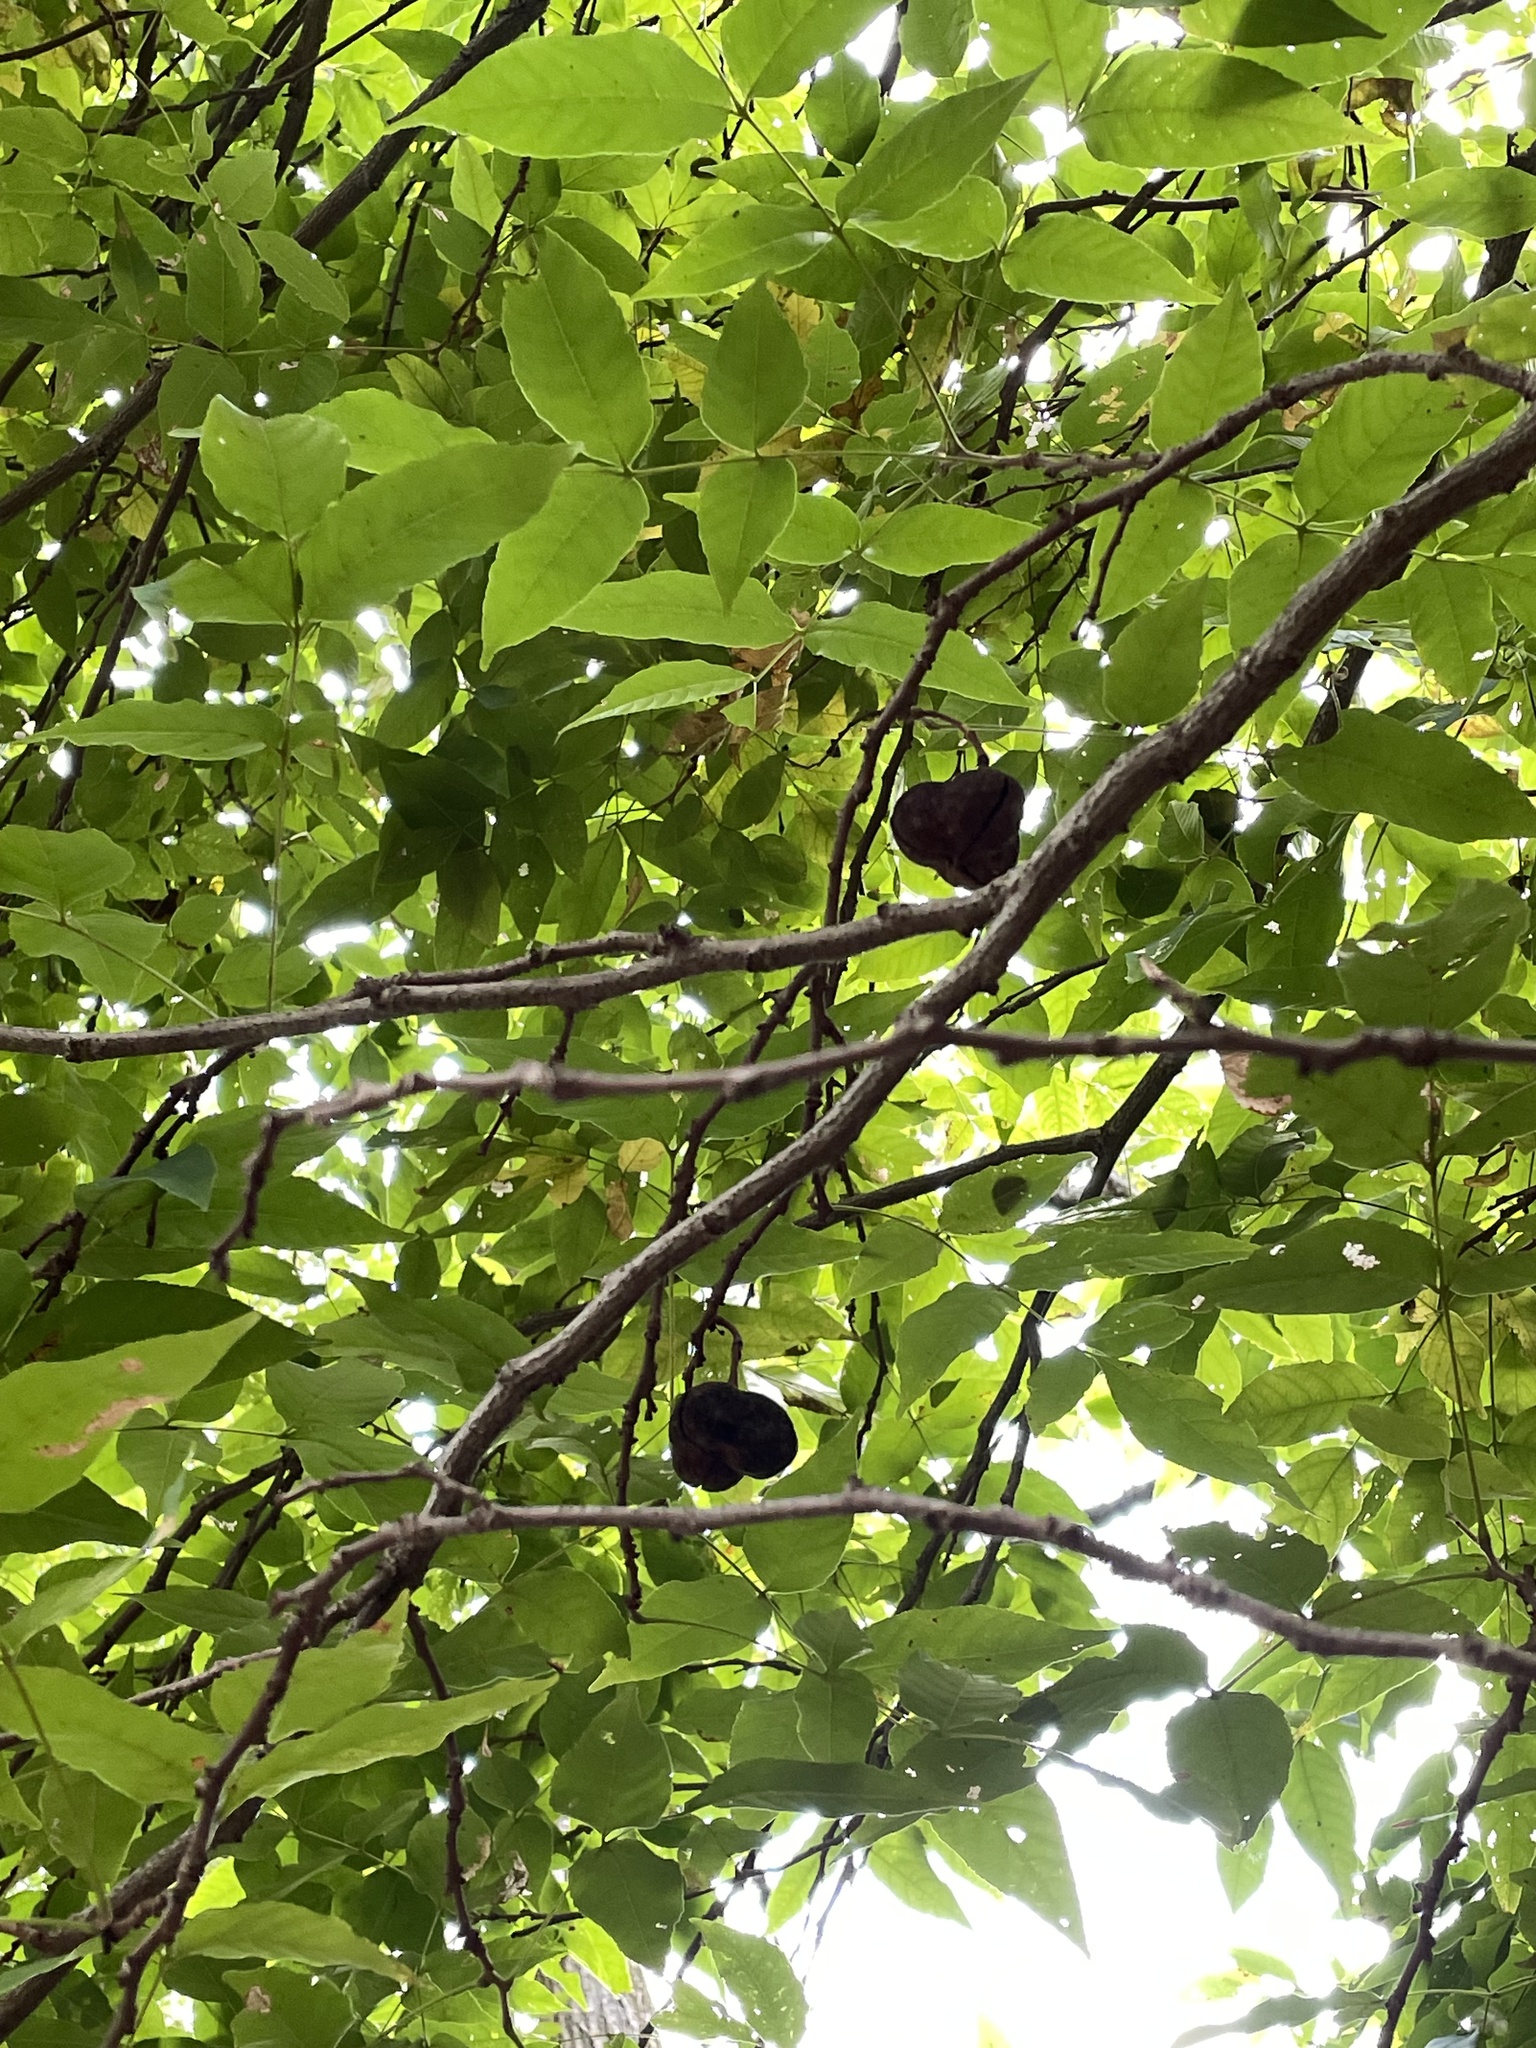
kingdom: Plantae
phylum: Tracheophyta
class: Magnoliopsida
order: Sapindales
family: Sapindaceae
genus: Ungnadia
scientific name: Ungnadia speciosa
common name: Texas-buckeye
